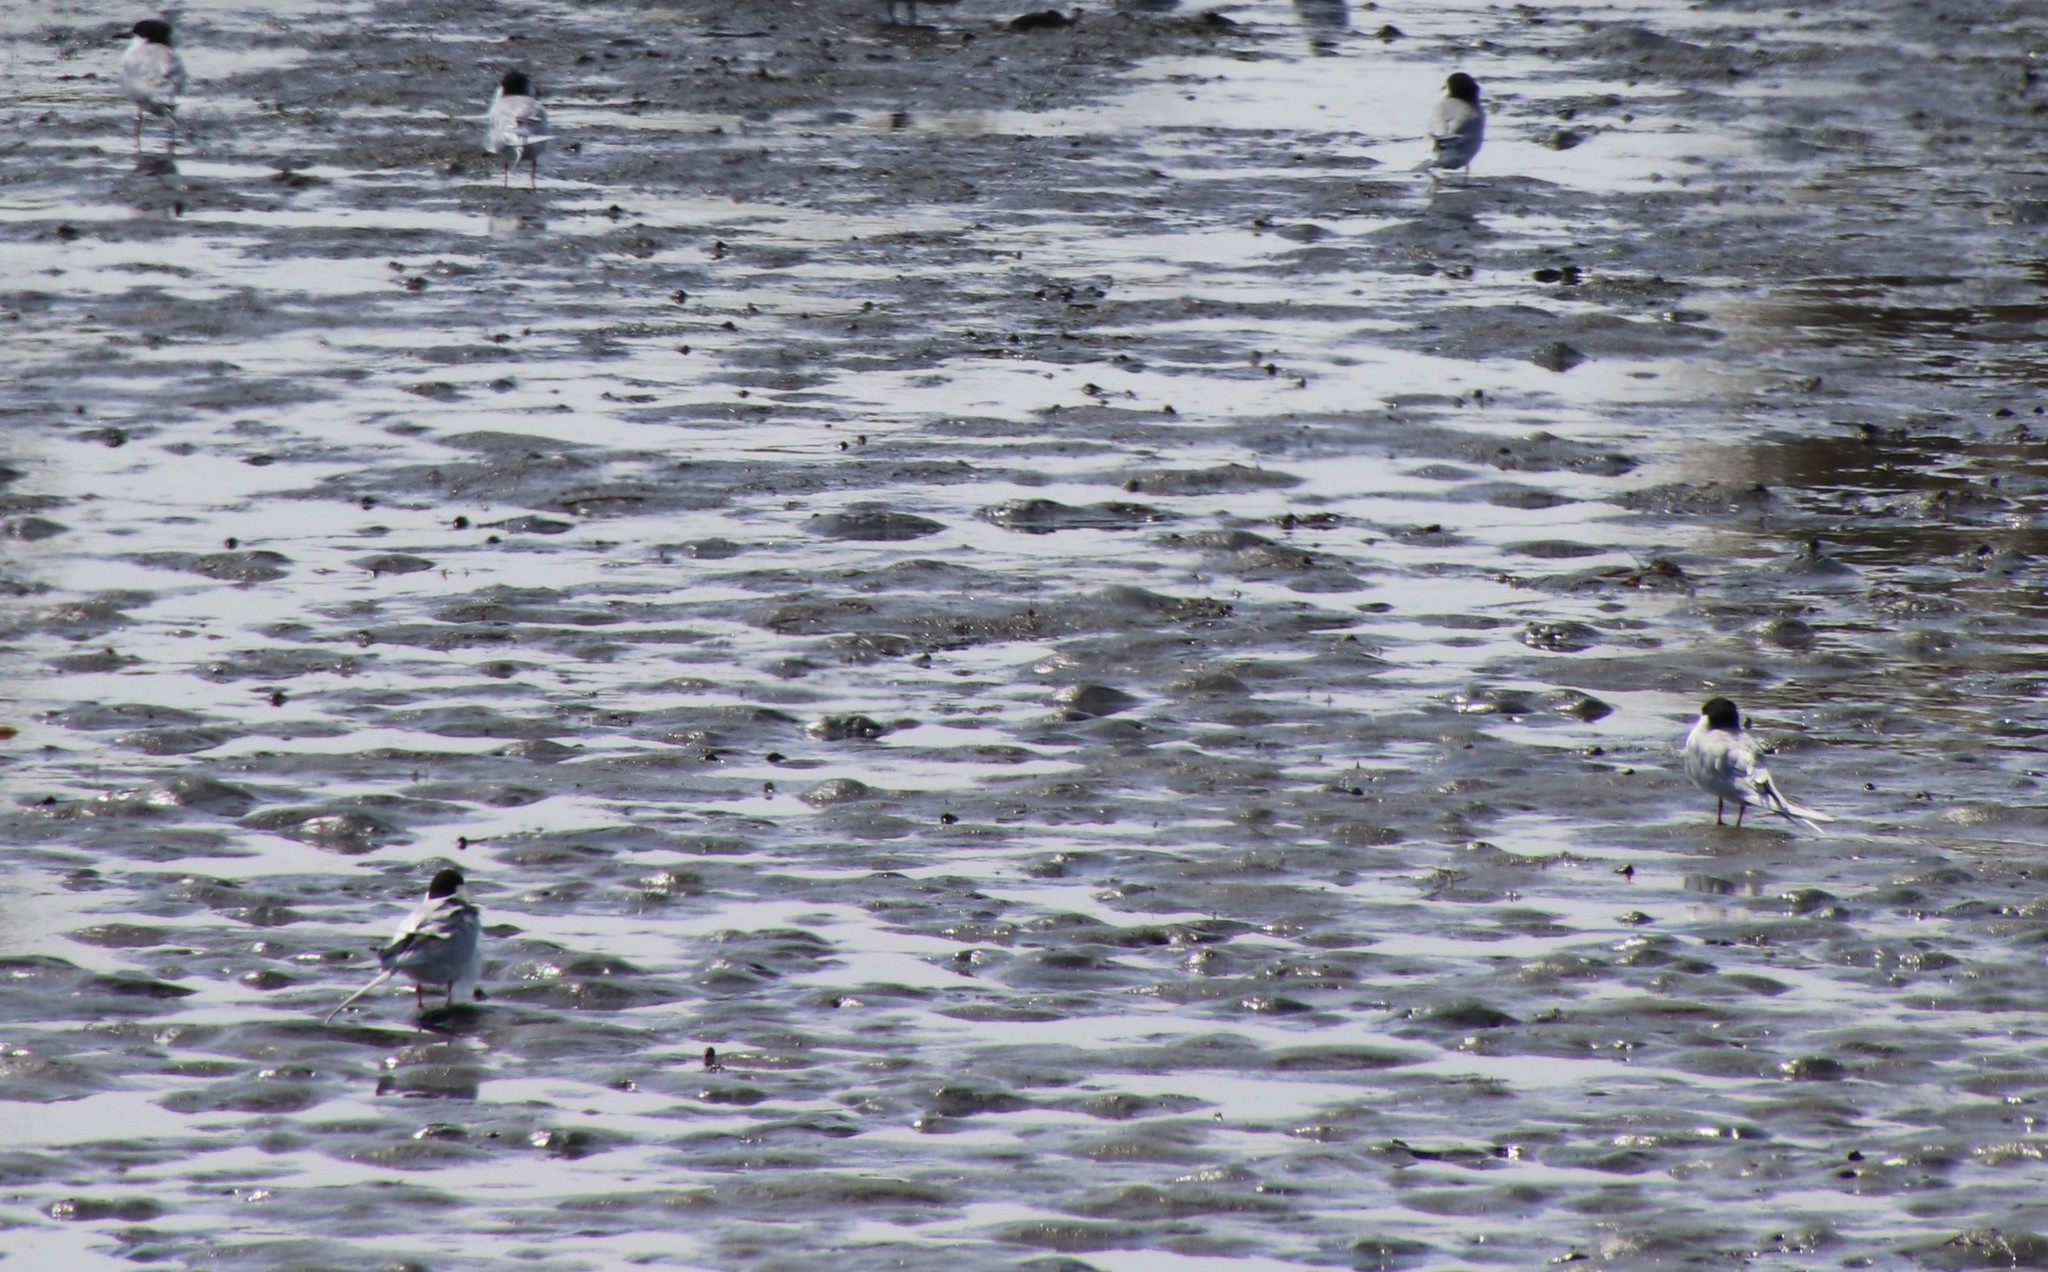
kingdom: Animalia
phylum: Chordata
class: Aves
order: Charadriiformes
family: Laridae
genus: Sterna
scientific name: Sterna forsteri
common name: Forster's tern
